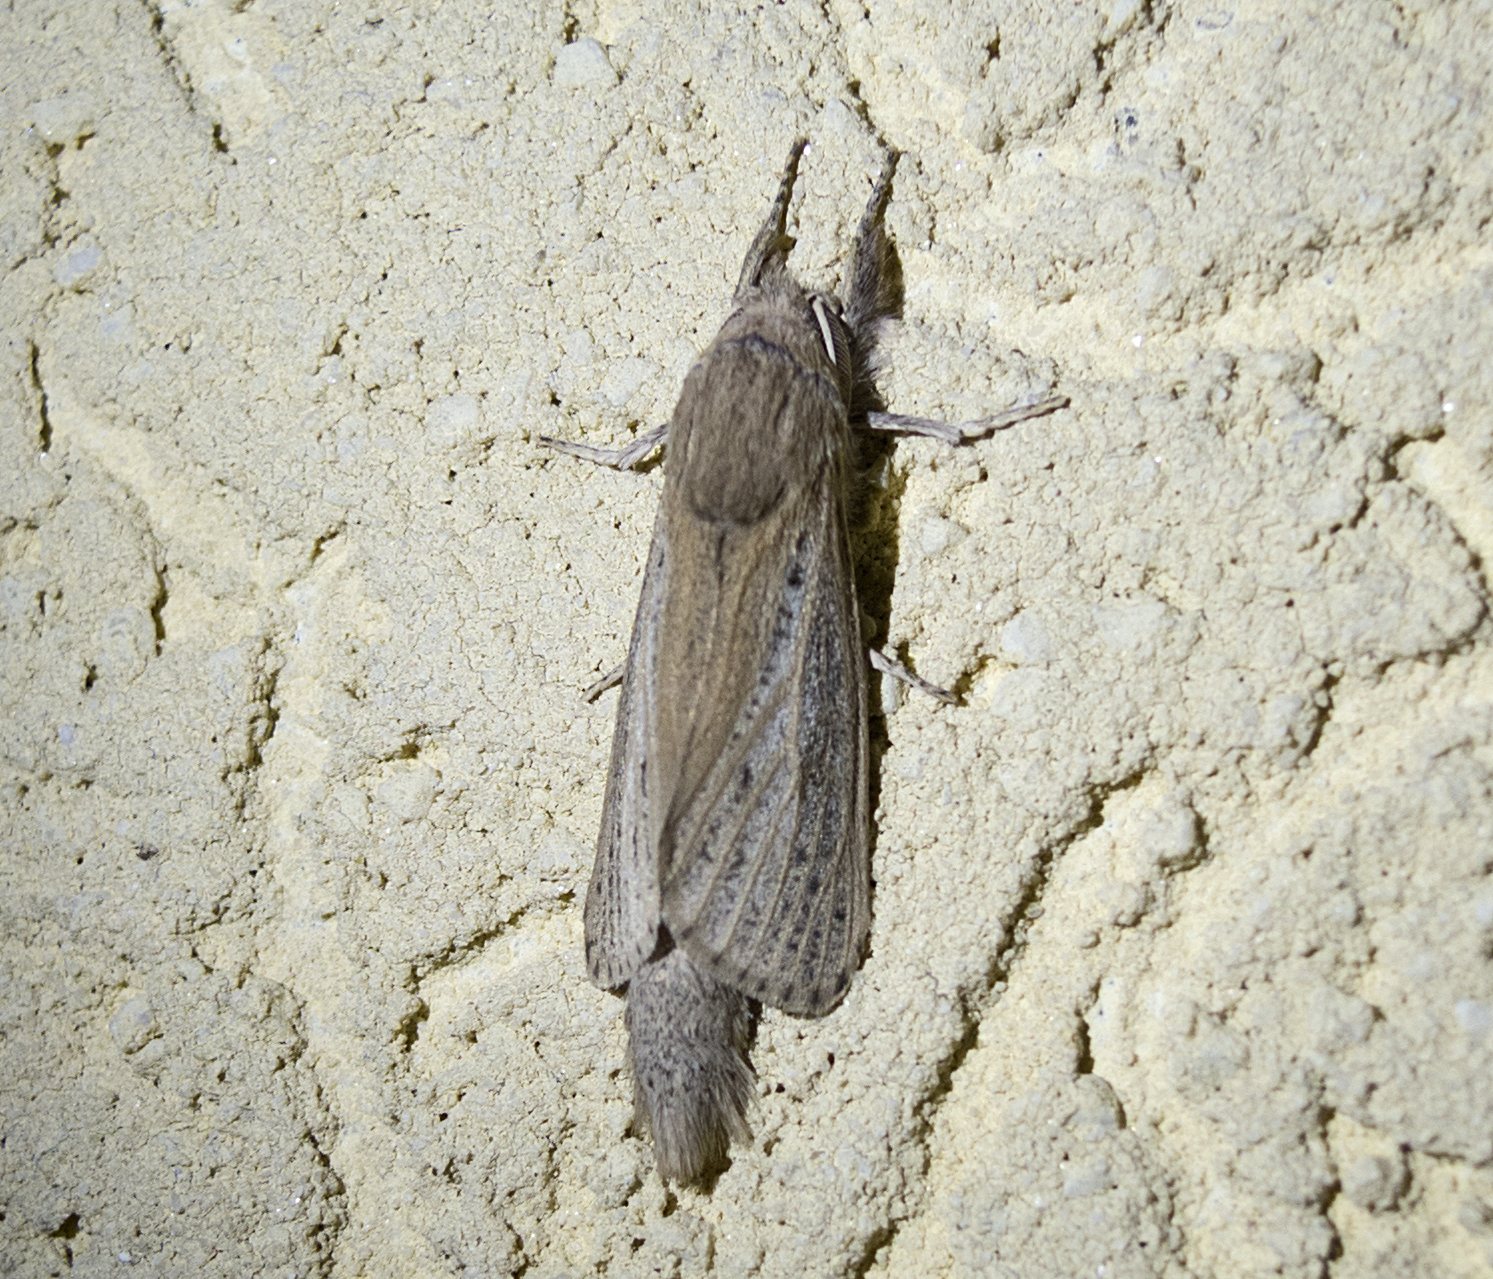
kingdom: Animalia
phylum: Arthropoda
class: Insecta
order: Lepidoptera
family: Cossidae
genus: Phragmataecia
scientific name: Phragmataecia castaneae
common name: Reed leopard
